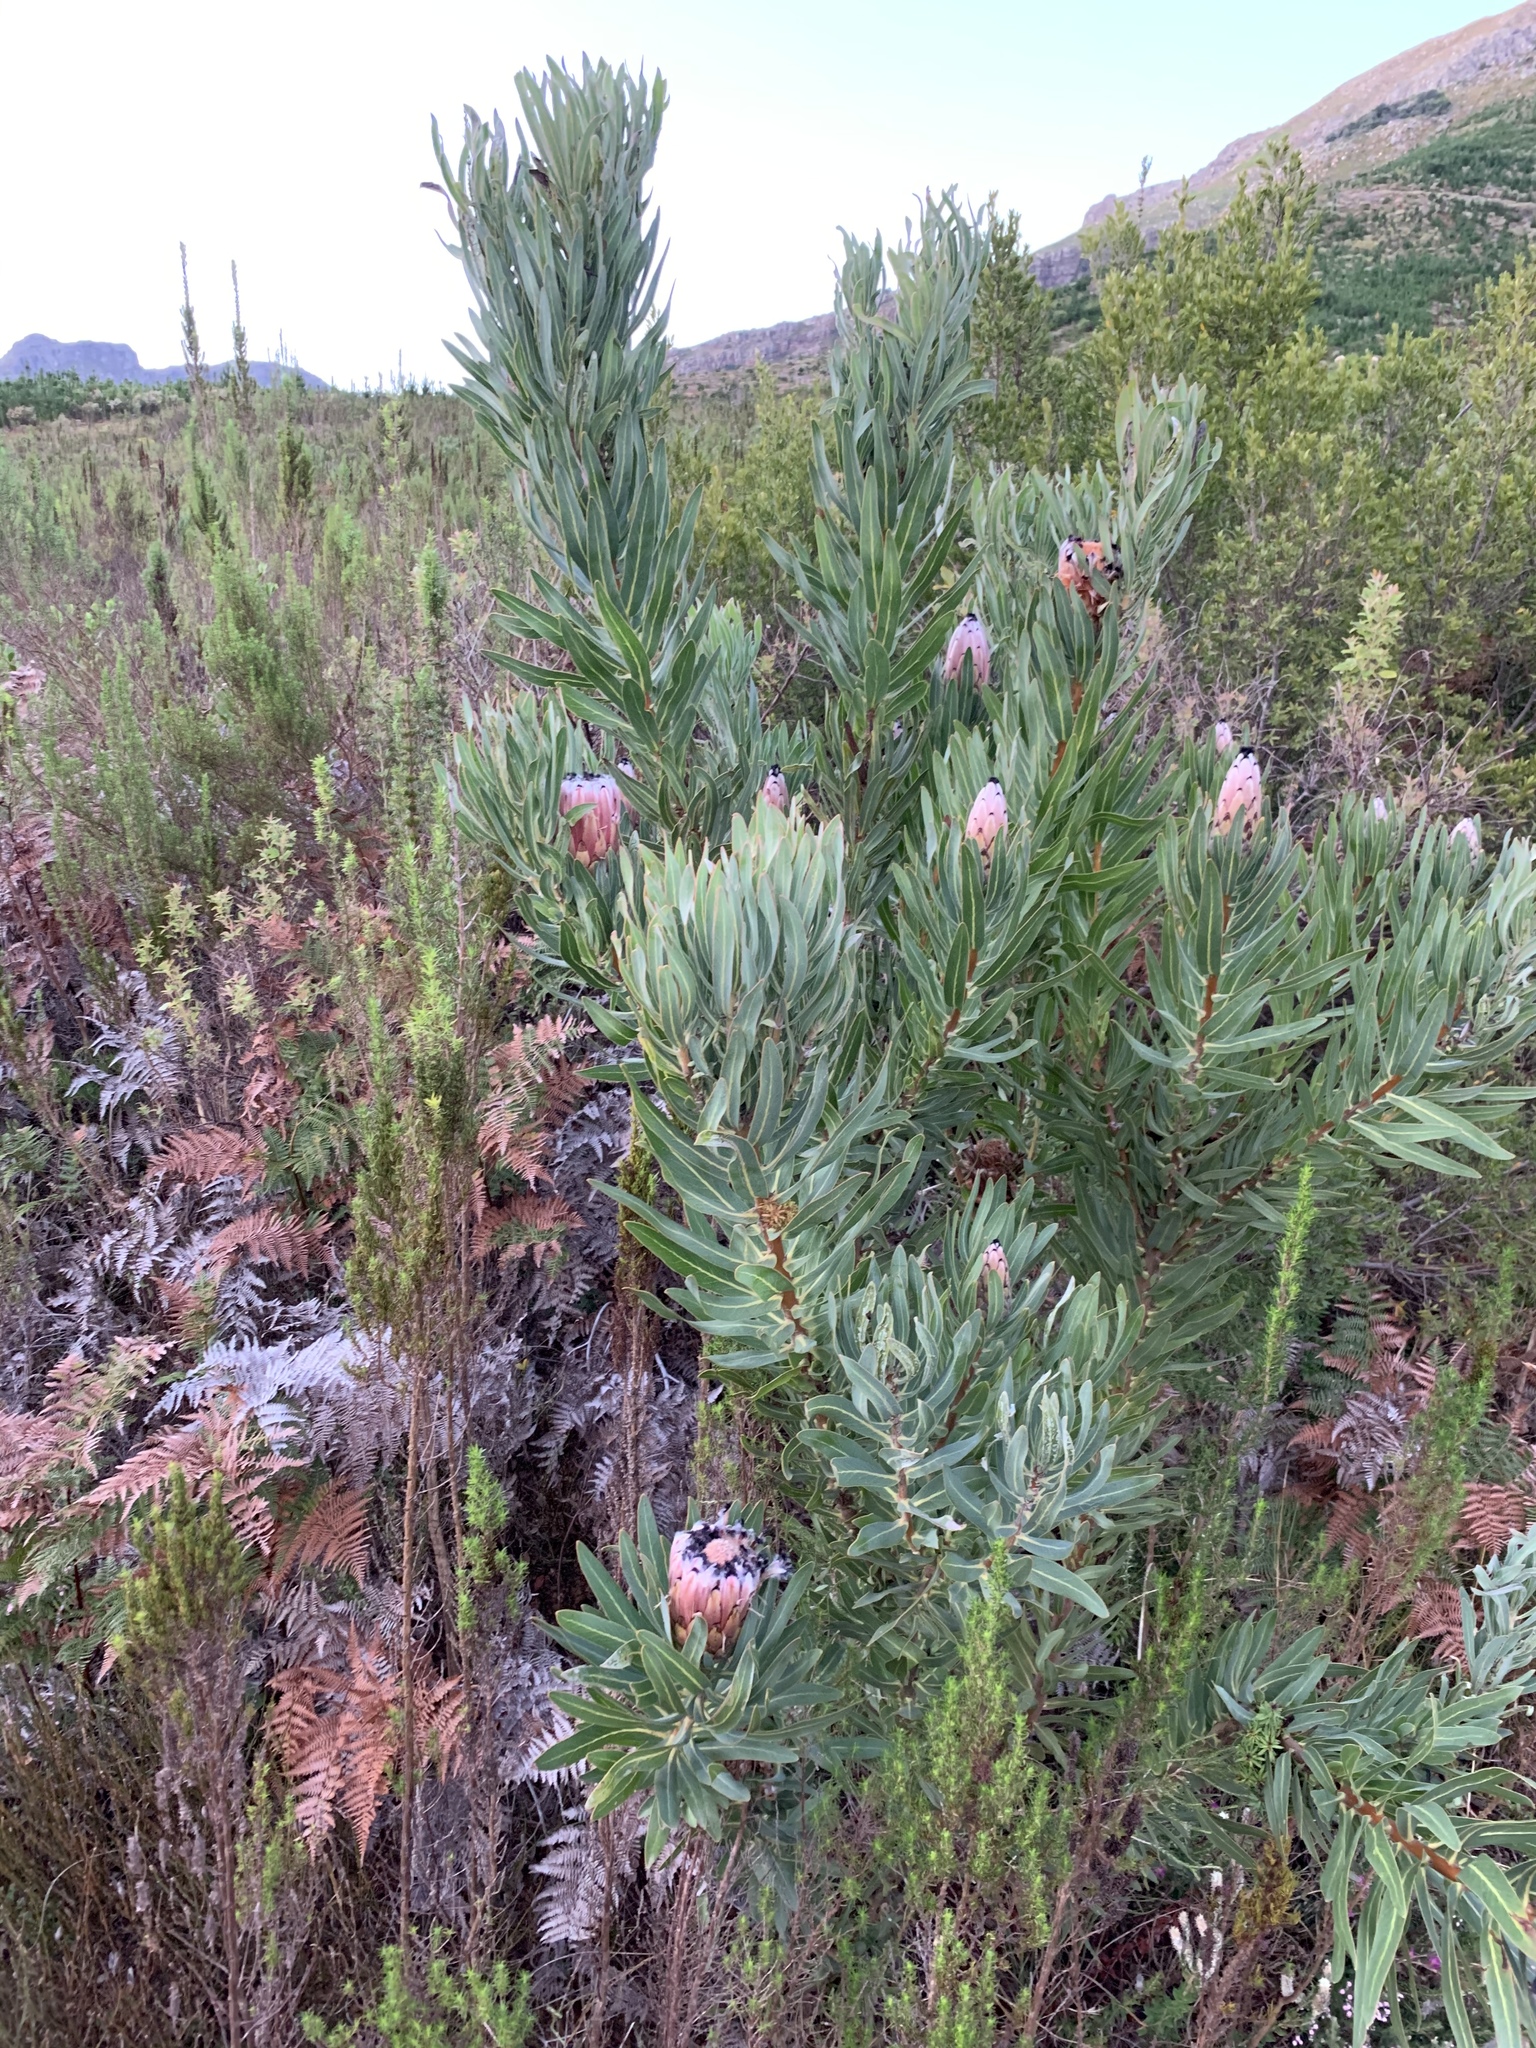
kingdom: Plantae
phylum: Tracheophyta
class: Magnoliopsida
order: Proteales
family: Proteaceae
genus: Protea
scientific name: Protea neriifolia
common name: Blue sugarbush
